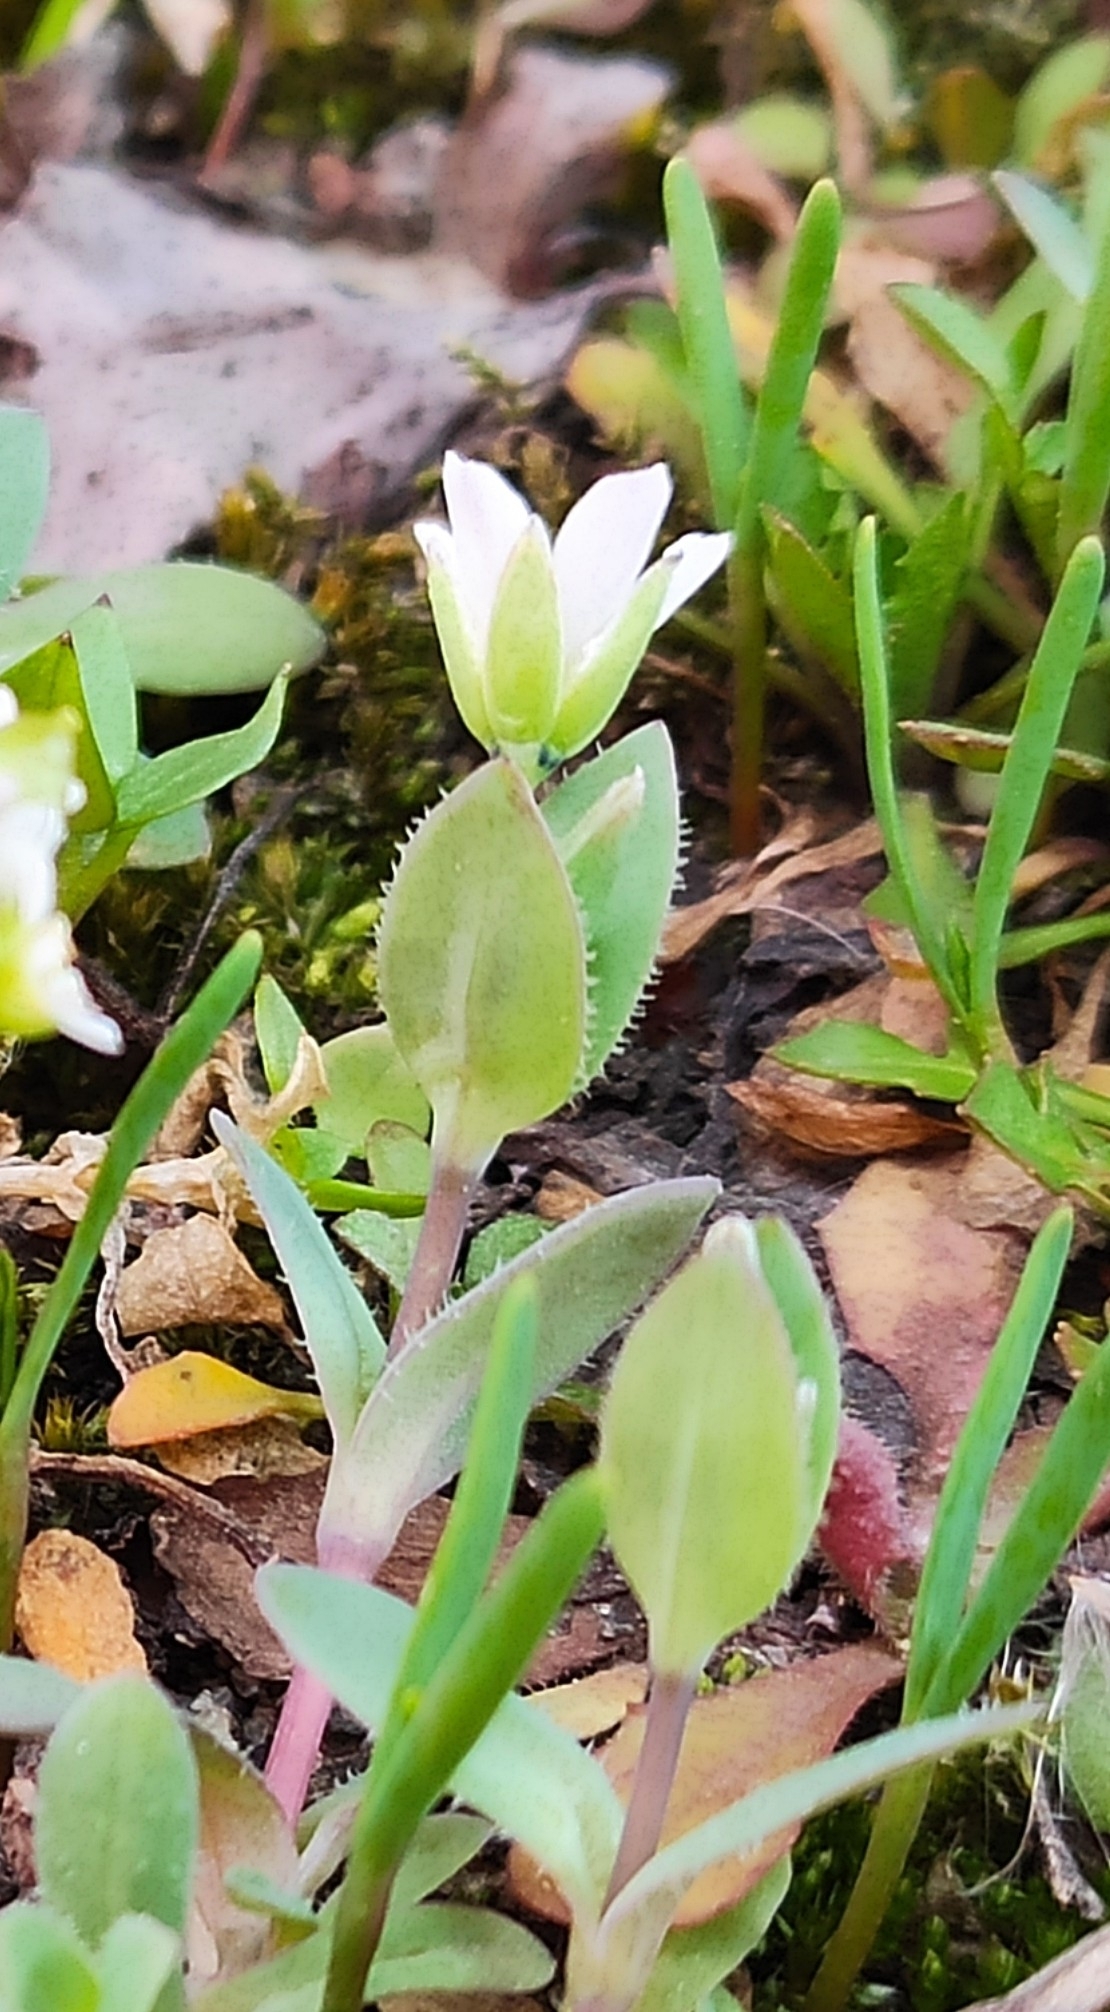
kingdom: Plantae
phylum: Tracheophyta
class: Magnoliopsida
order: Caryophyllales
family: Caryophyllaceae
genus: Holosteum
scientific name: Holosteum umbellatum
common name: Jagged chickweed
